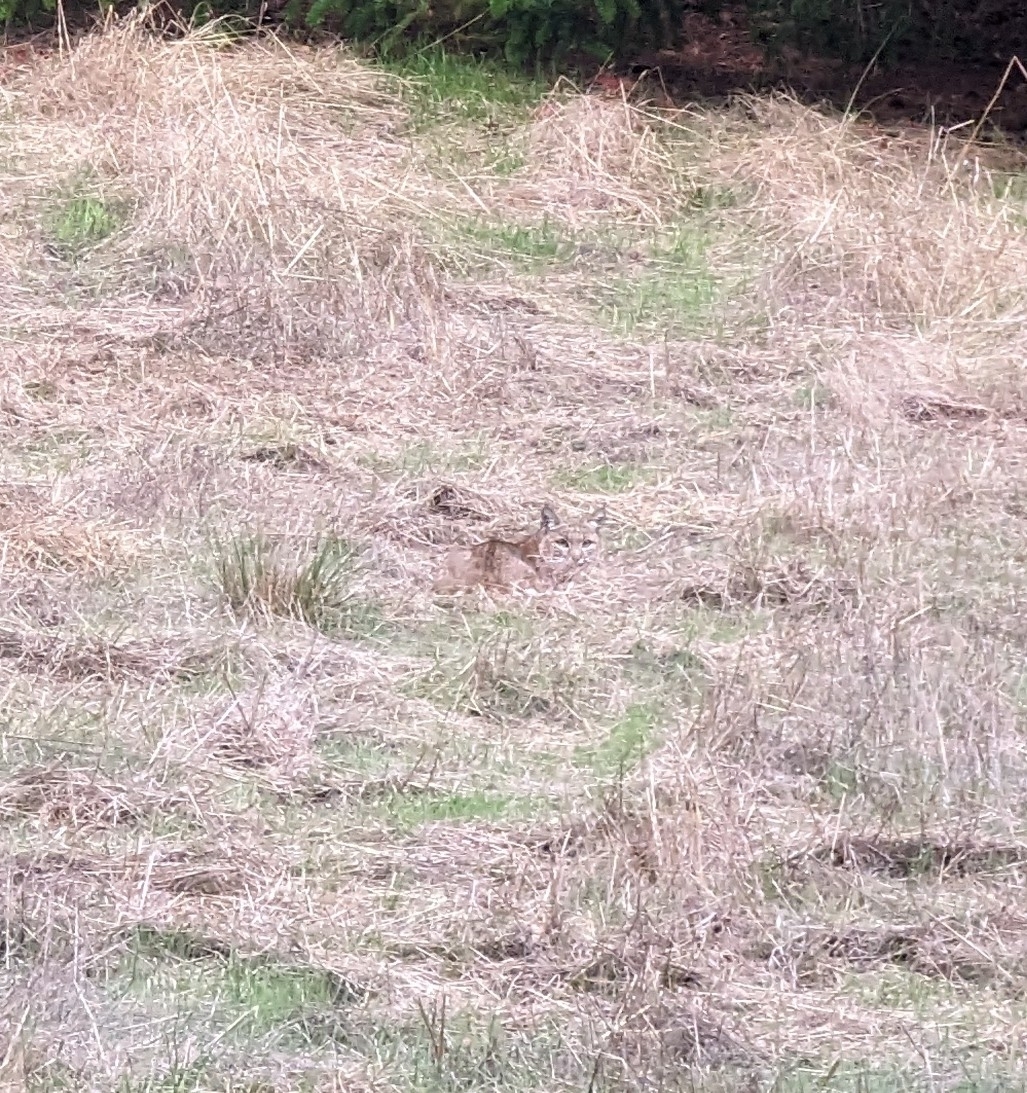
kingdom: Animalia
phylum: Chordata
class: Mammalia
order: Carnivora
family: Felidae
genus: Lynx
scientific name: Lynx rufus
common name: Bobcat
